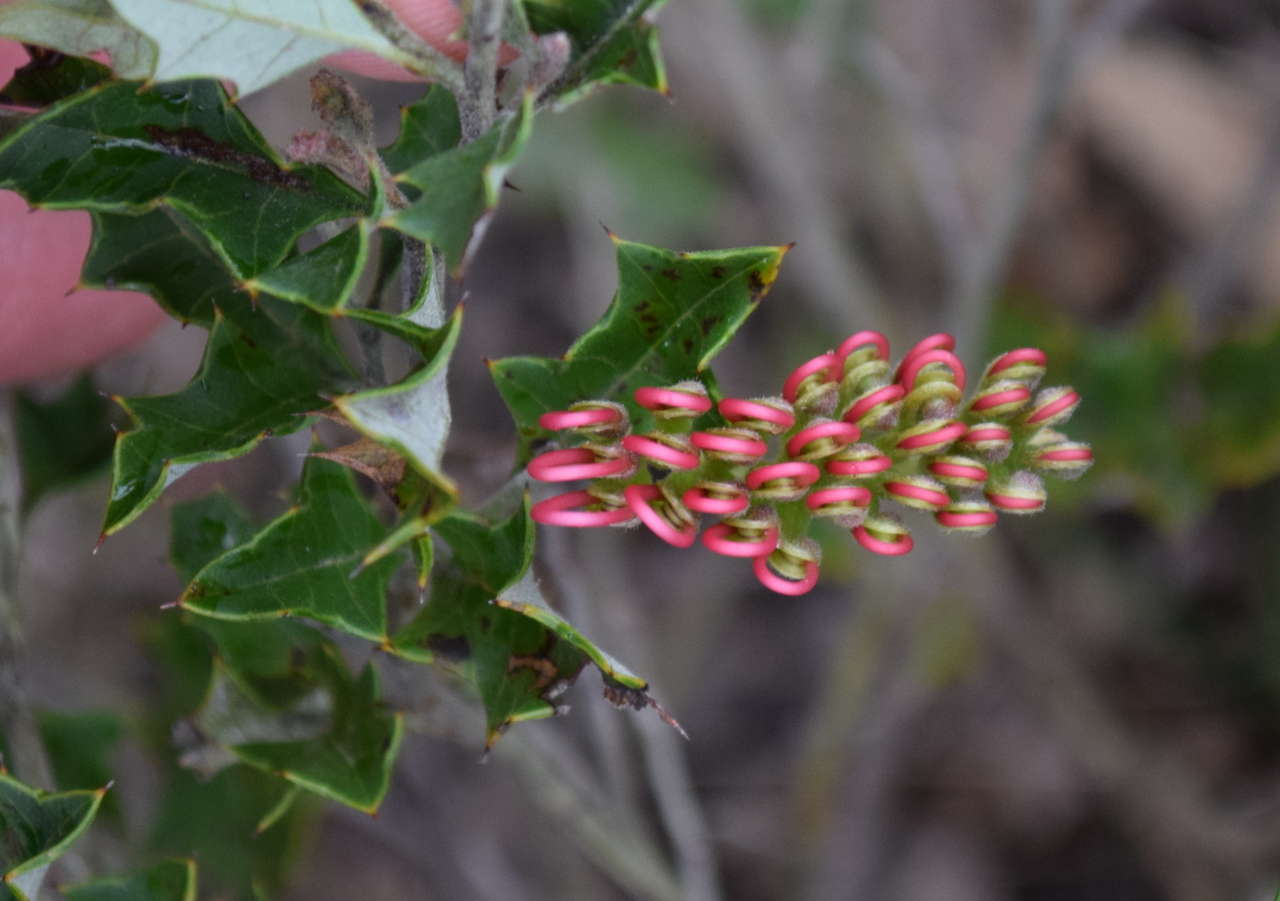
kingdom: Plantae
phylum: Tracheophyta
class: Magnoliopsida
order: Proteales
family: Proteaceae
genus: Grevillea
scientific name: Grevillea aquifolium
